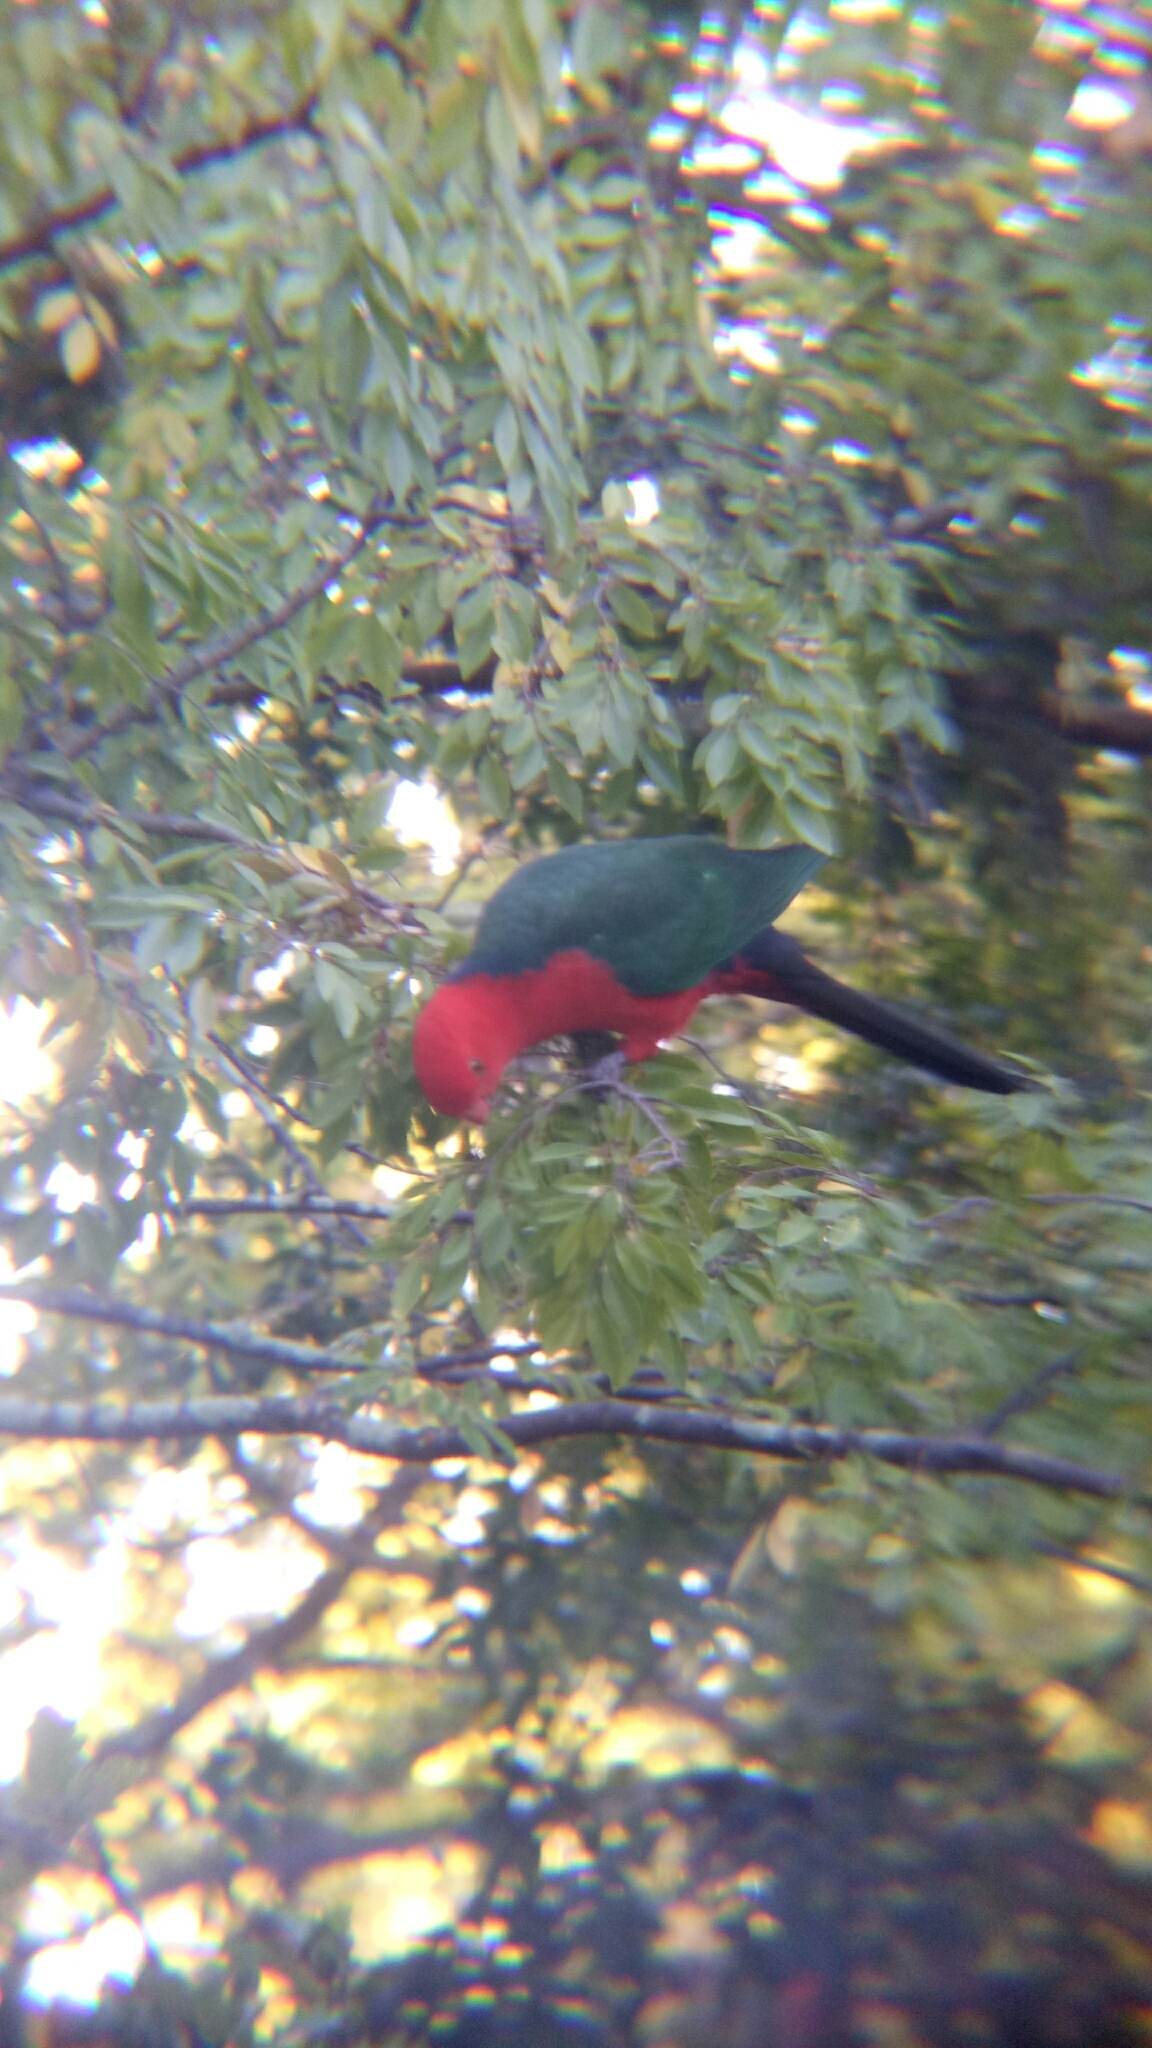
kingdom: Animalia
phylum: Chordata
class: Aves
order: Psittaciformes
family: Psittacidae
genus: Alisterus
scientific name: Alisterus scapularis
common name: Australian king parrot
